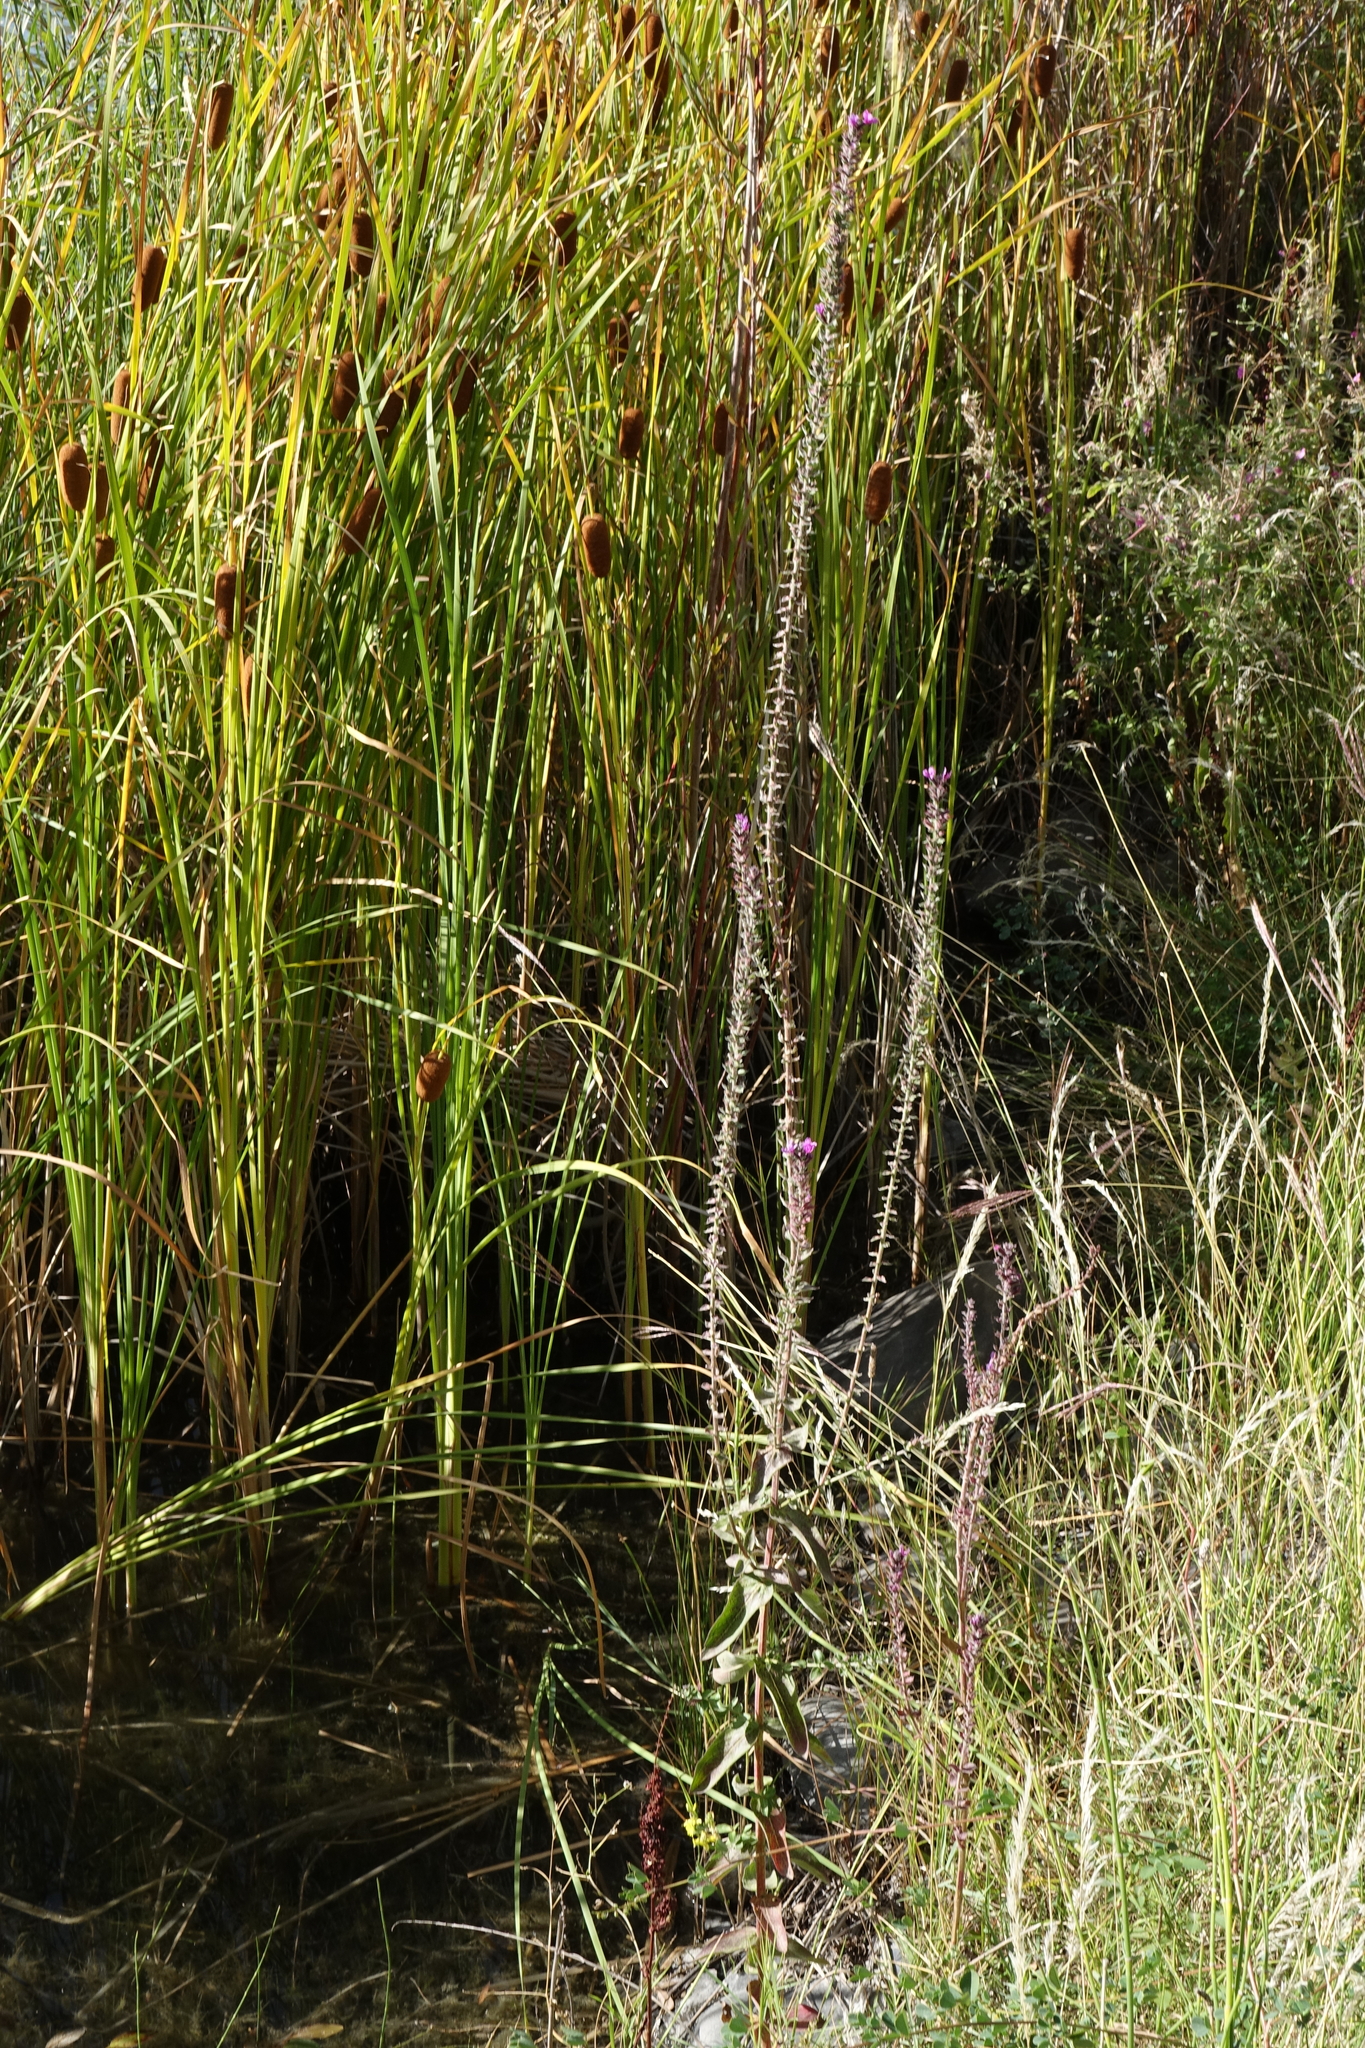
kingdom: Plantae
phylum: Tracheophyta
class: Magnoliopsida
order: Myrtales
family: Lythraceae
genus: Lythrum
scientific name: Lythrum salicaria
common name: Purple loosestrife
